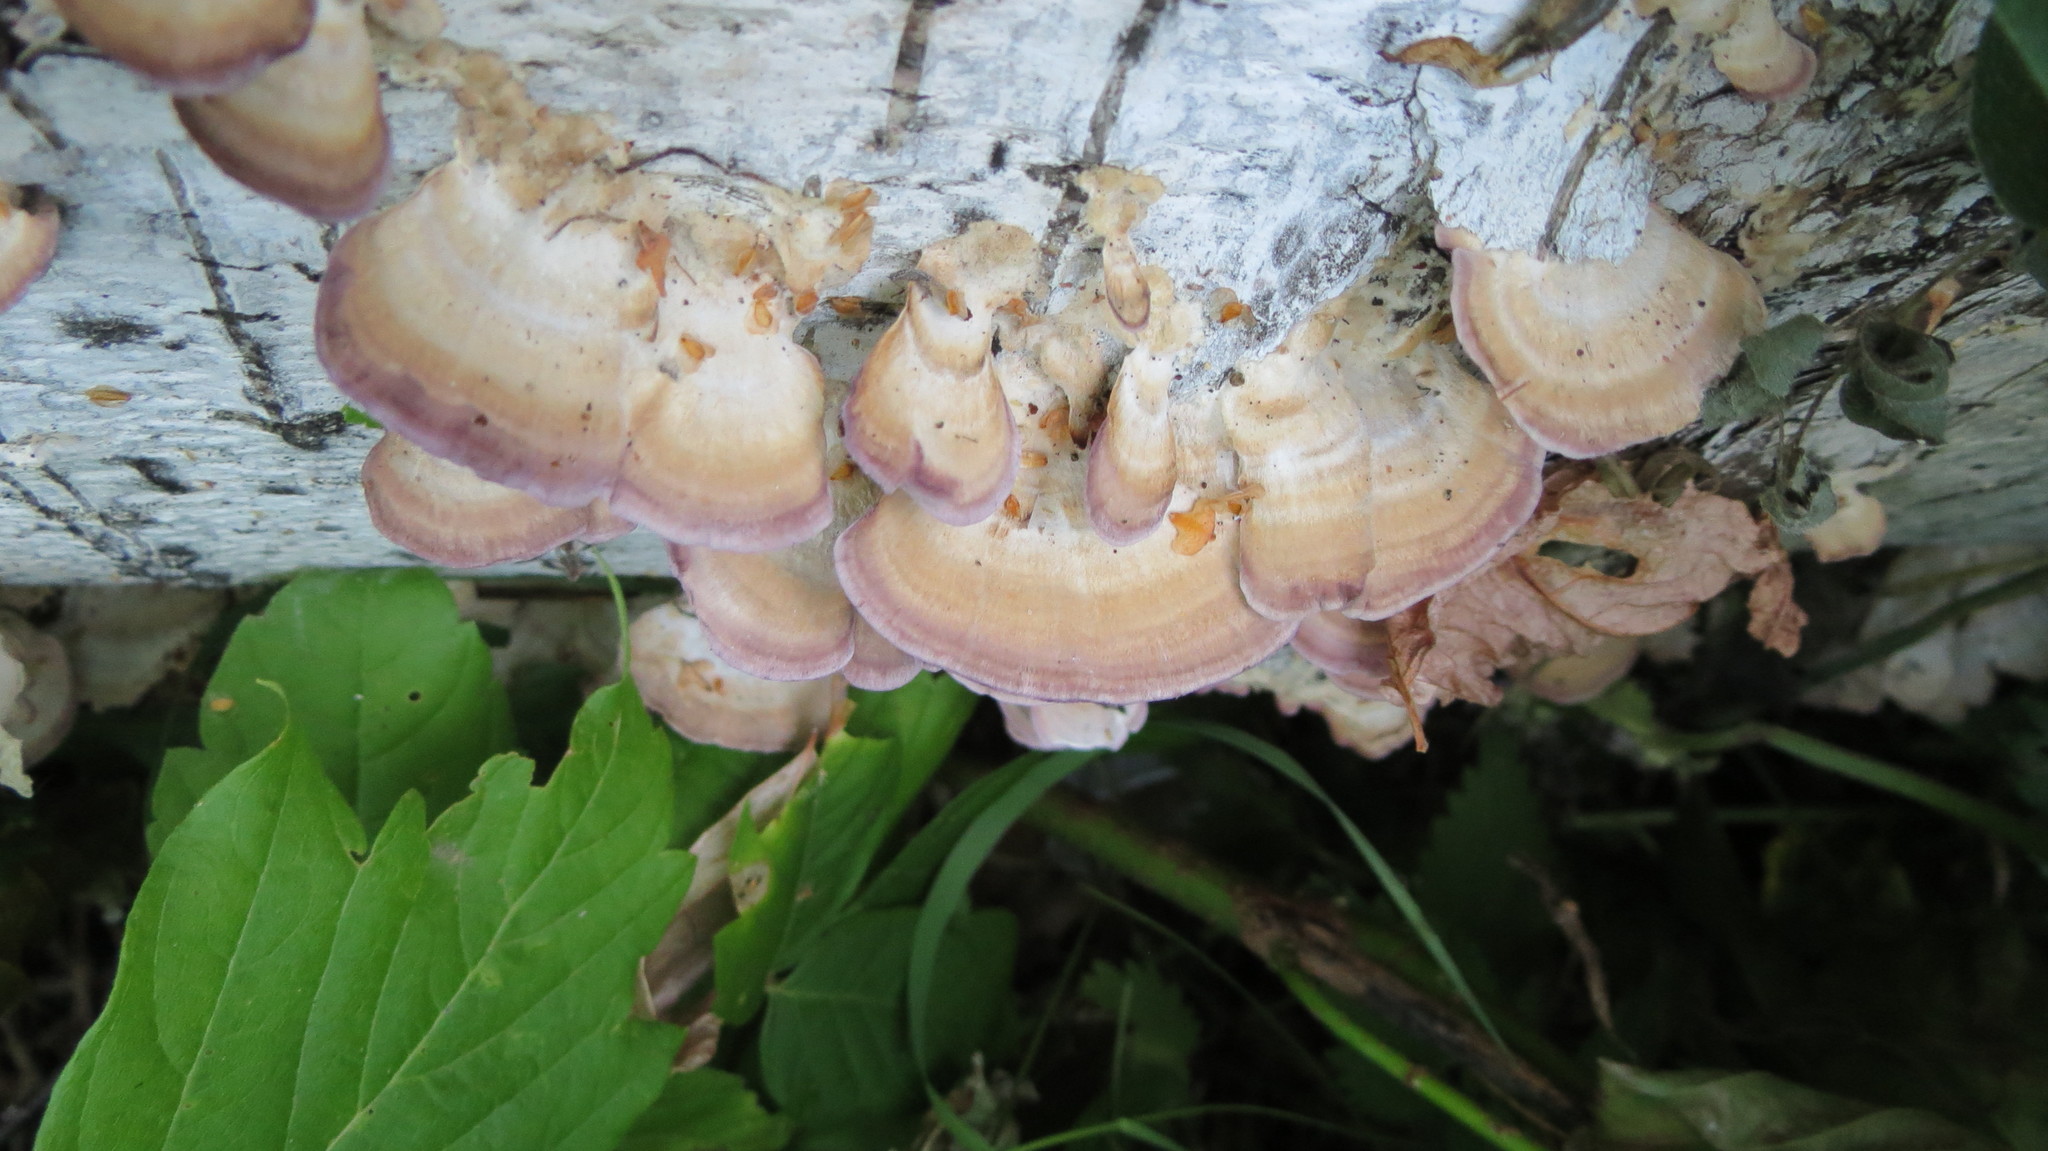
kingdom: Fungi
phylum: Basidiomycota
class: Agaricomycetes
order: Hymenochaetales
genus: Trichaptum
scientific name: Trichaptum biforme
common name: Violet-toothed polypore
